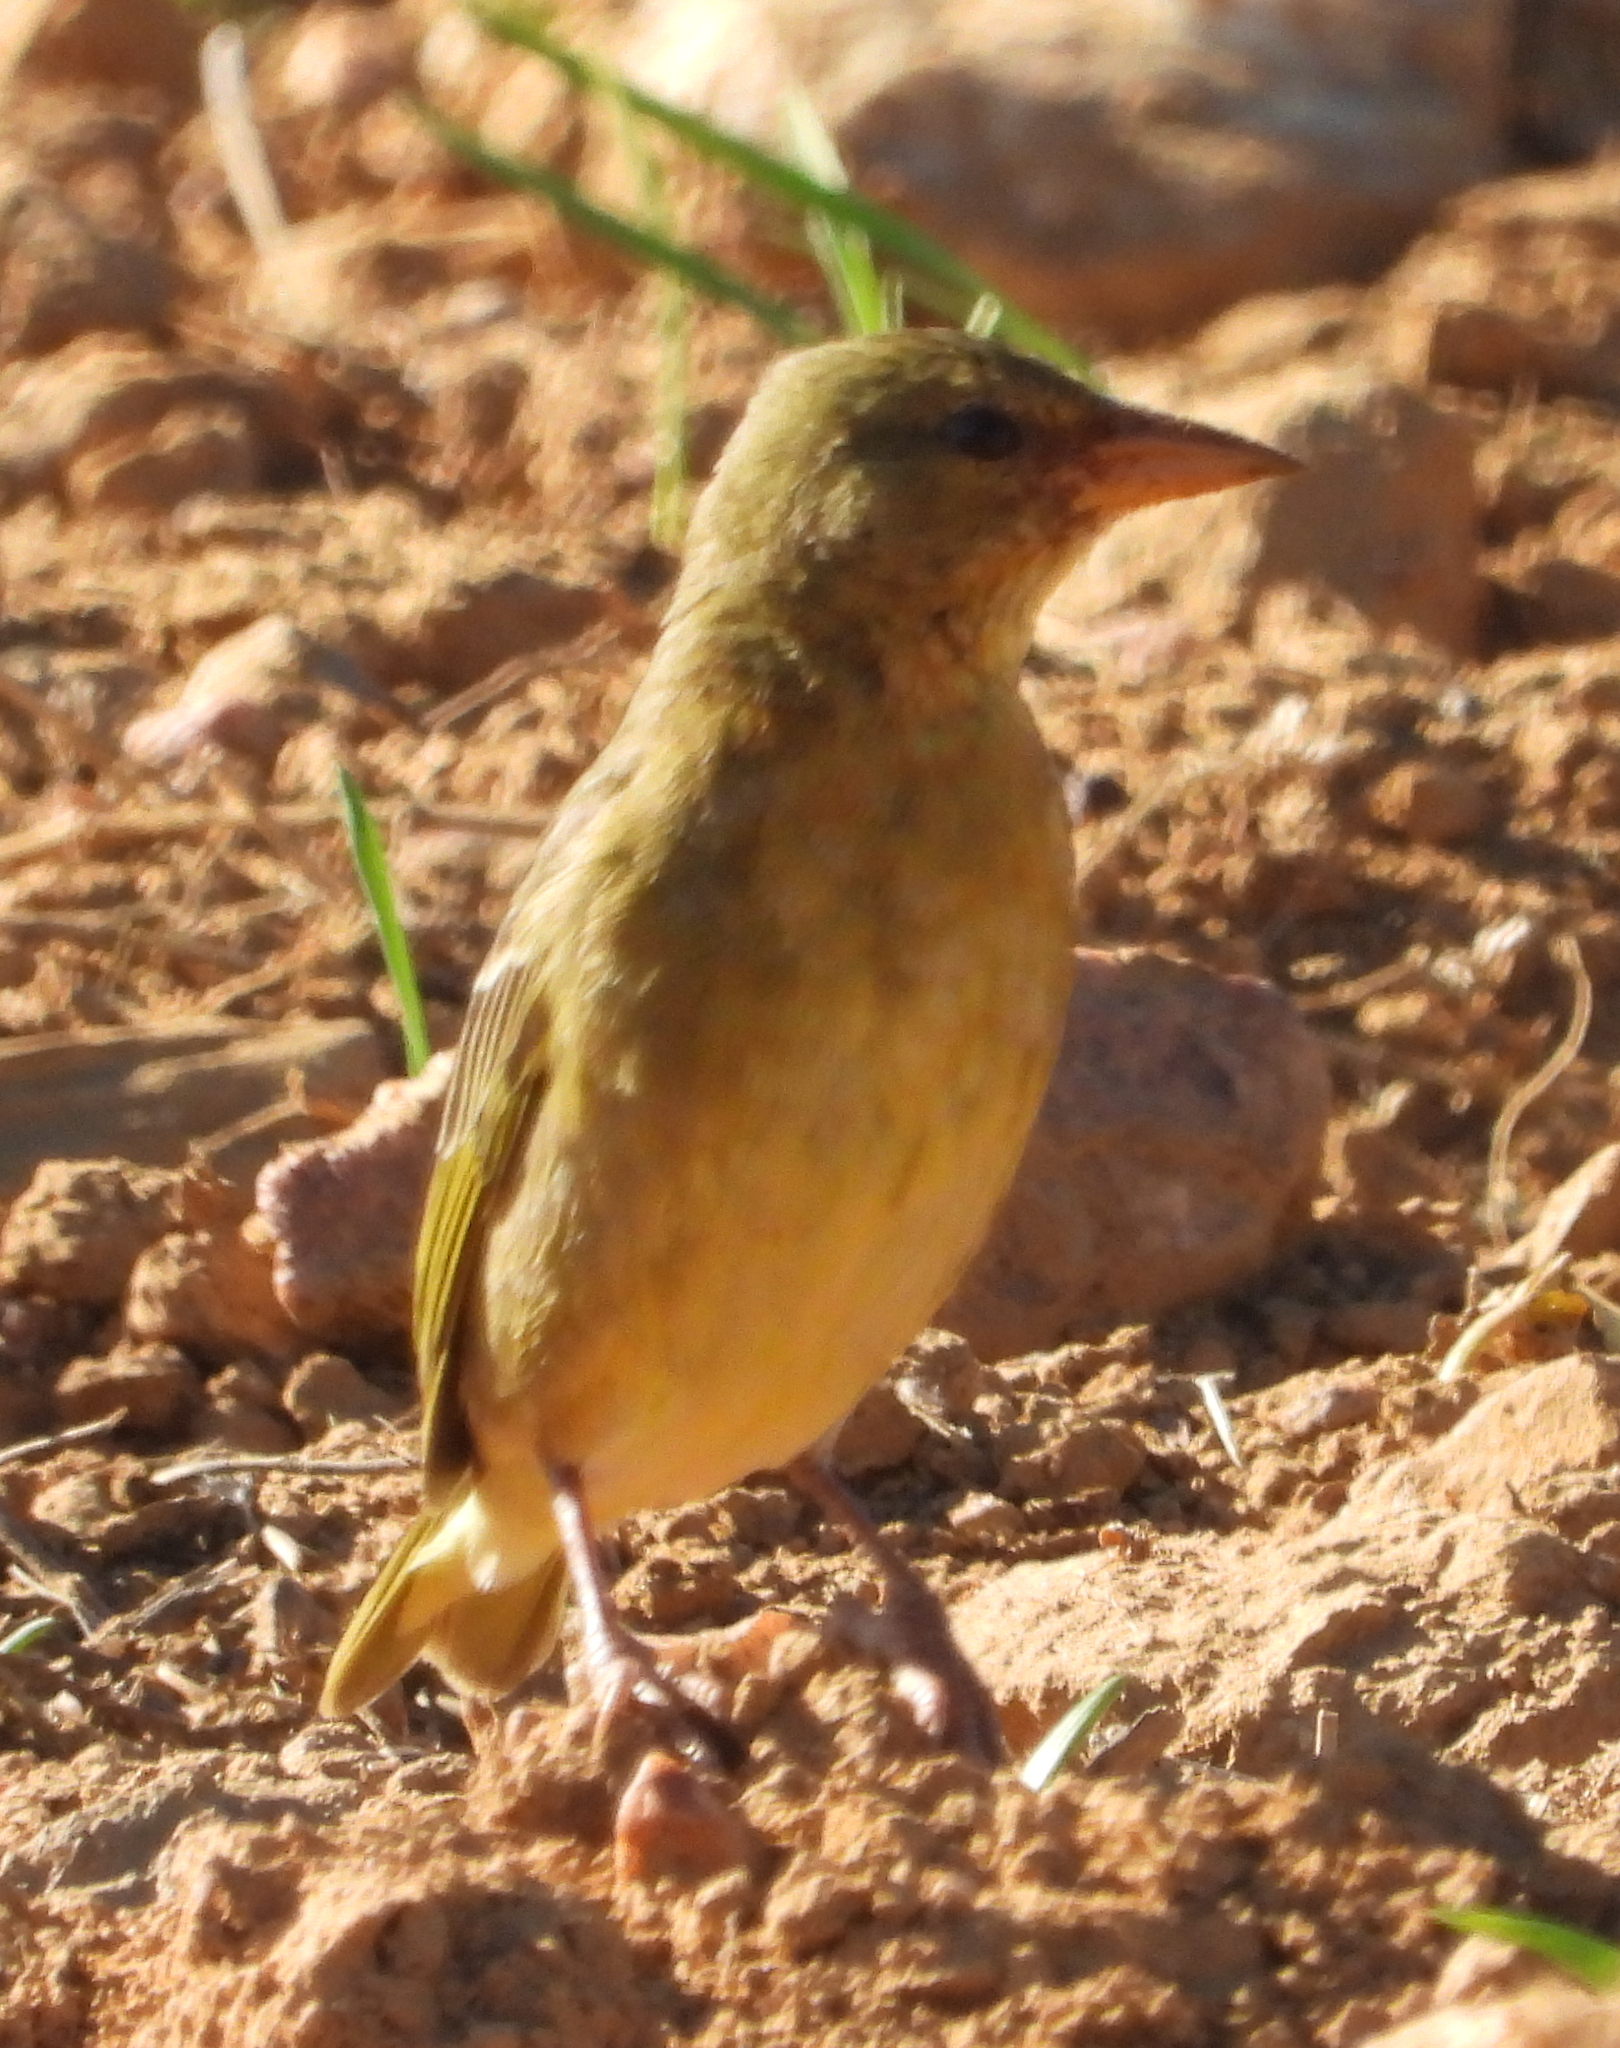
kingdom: Animalia
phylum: Chordata
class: Aves
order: Passeriformes
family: Ploceidae
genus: Ploceus
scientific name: Ploceus capensis
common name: Cape weaver
